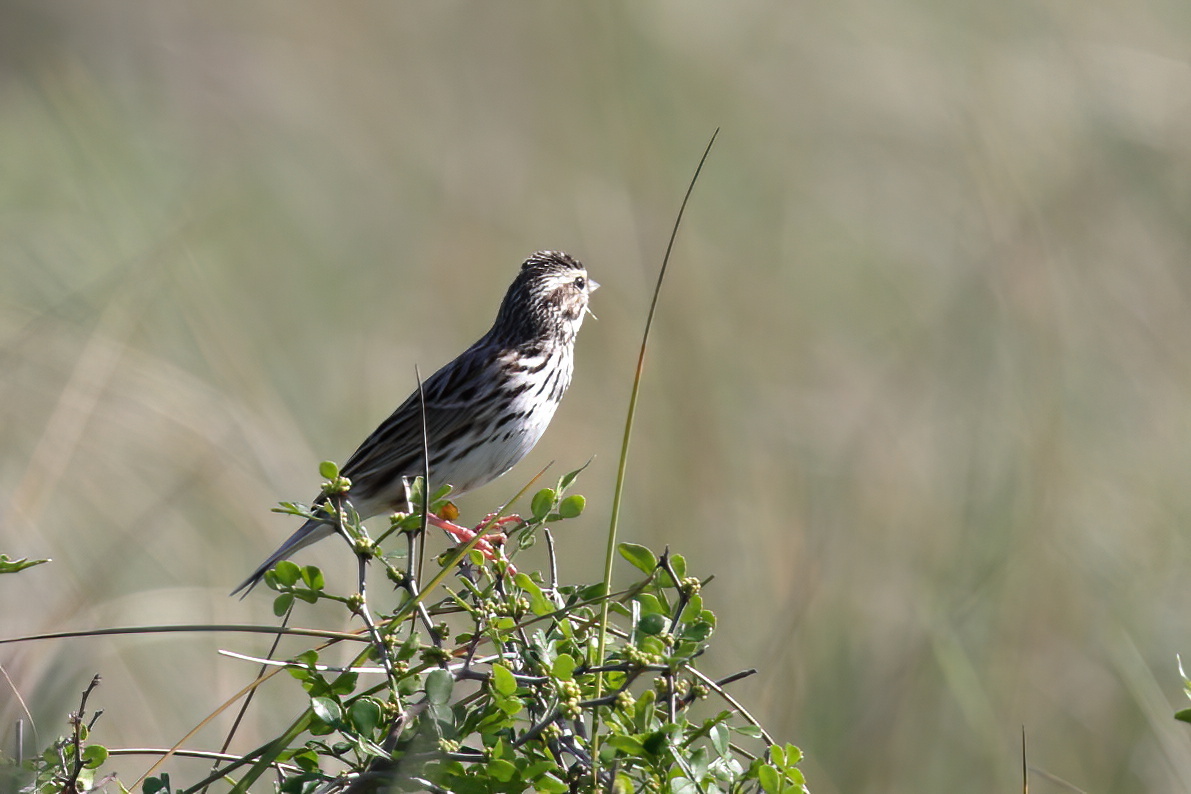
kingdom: Animalia
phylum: Chordata
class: Aves
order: Passeriformes
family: Passerellidae
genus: Passerculus
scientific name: Passerculus sandwichensis
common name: Savannah sparrow
